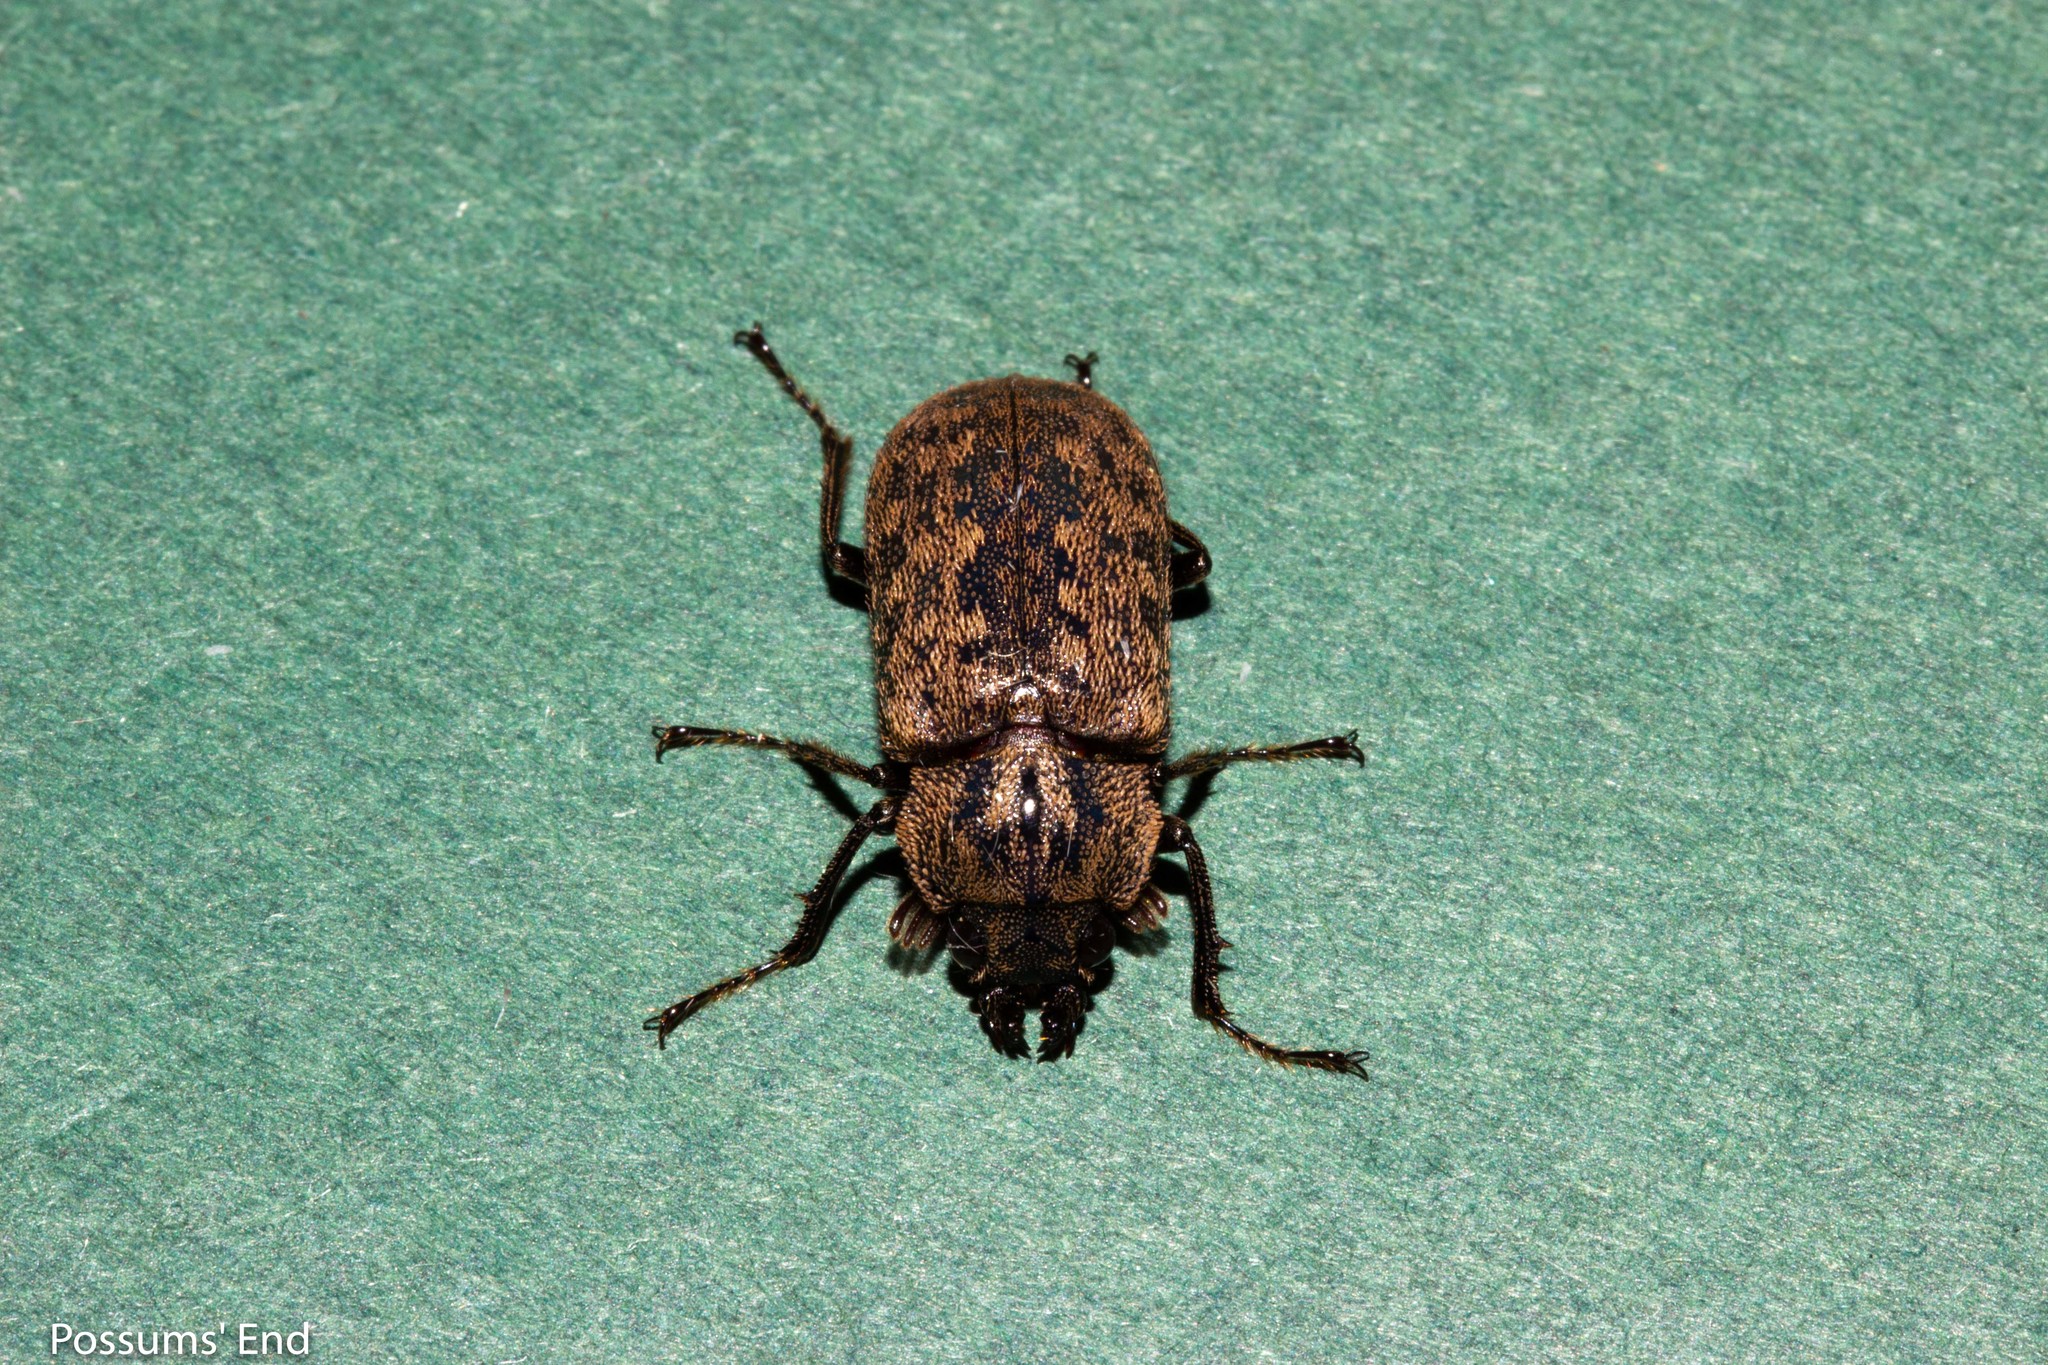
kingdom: Animalia
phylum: Arthropoda
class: Insecta
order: Coleoptera
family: Lucanidae
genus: Mitophyllus
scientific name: Mitophyllus parrianus
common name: Parry's stag beetle
